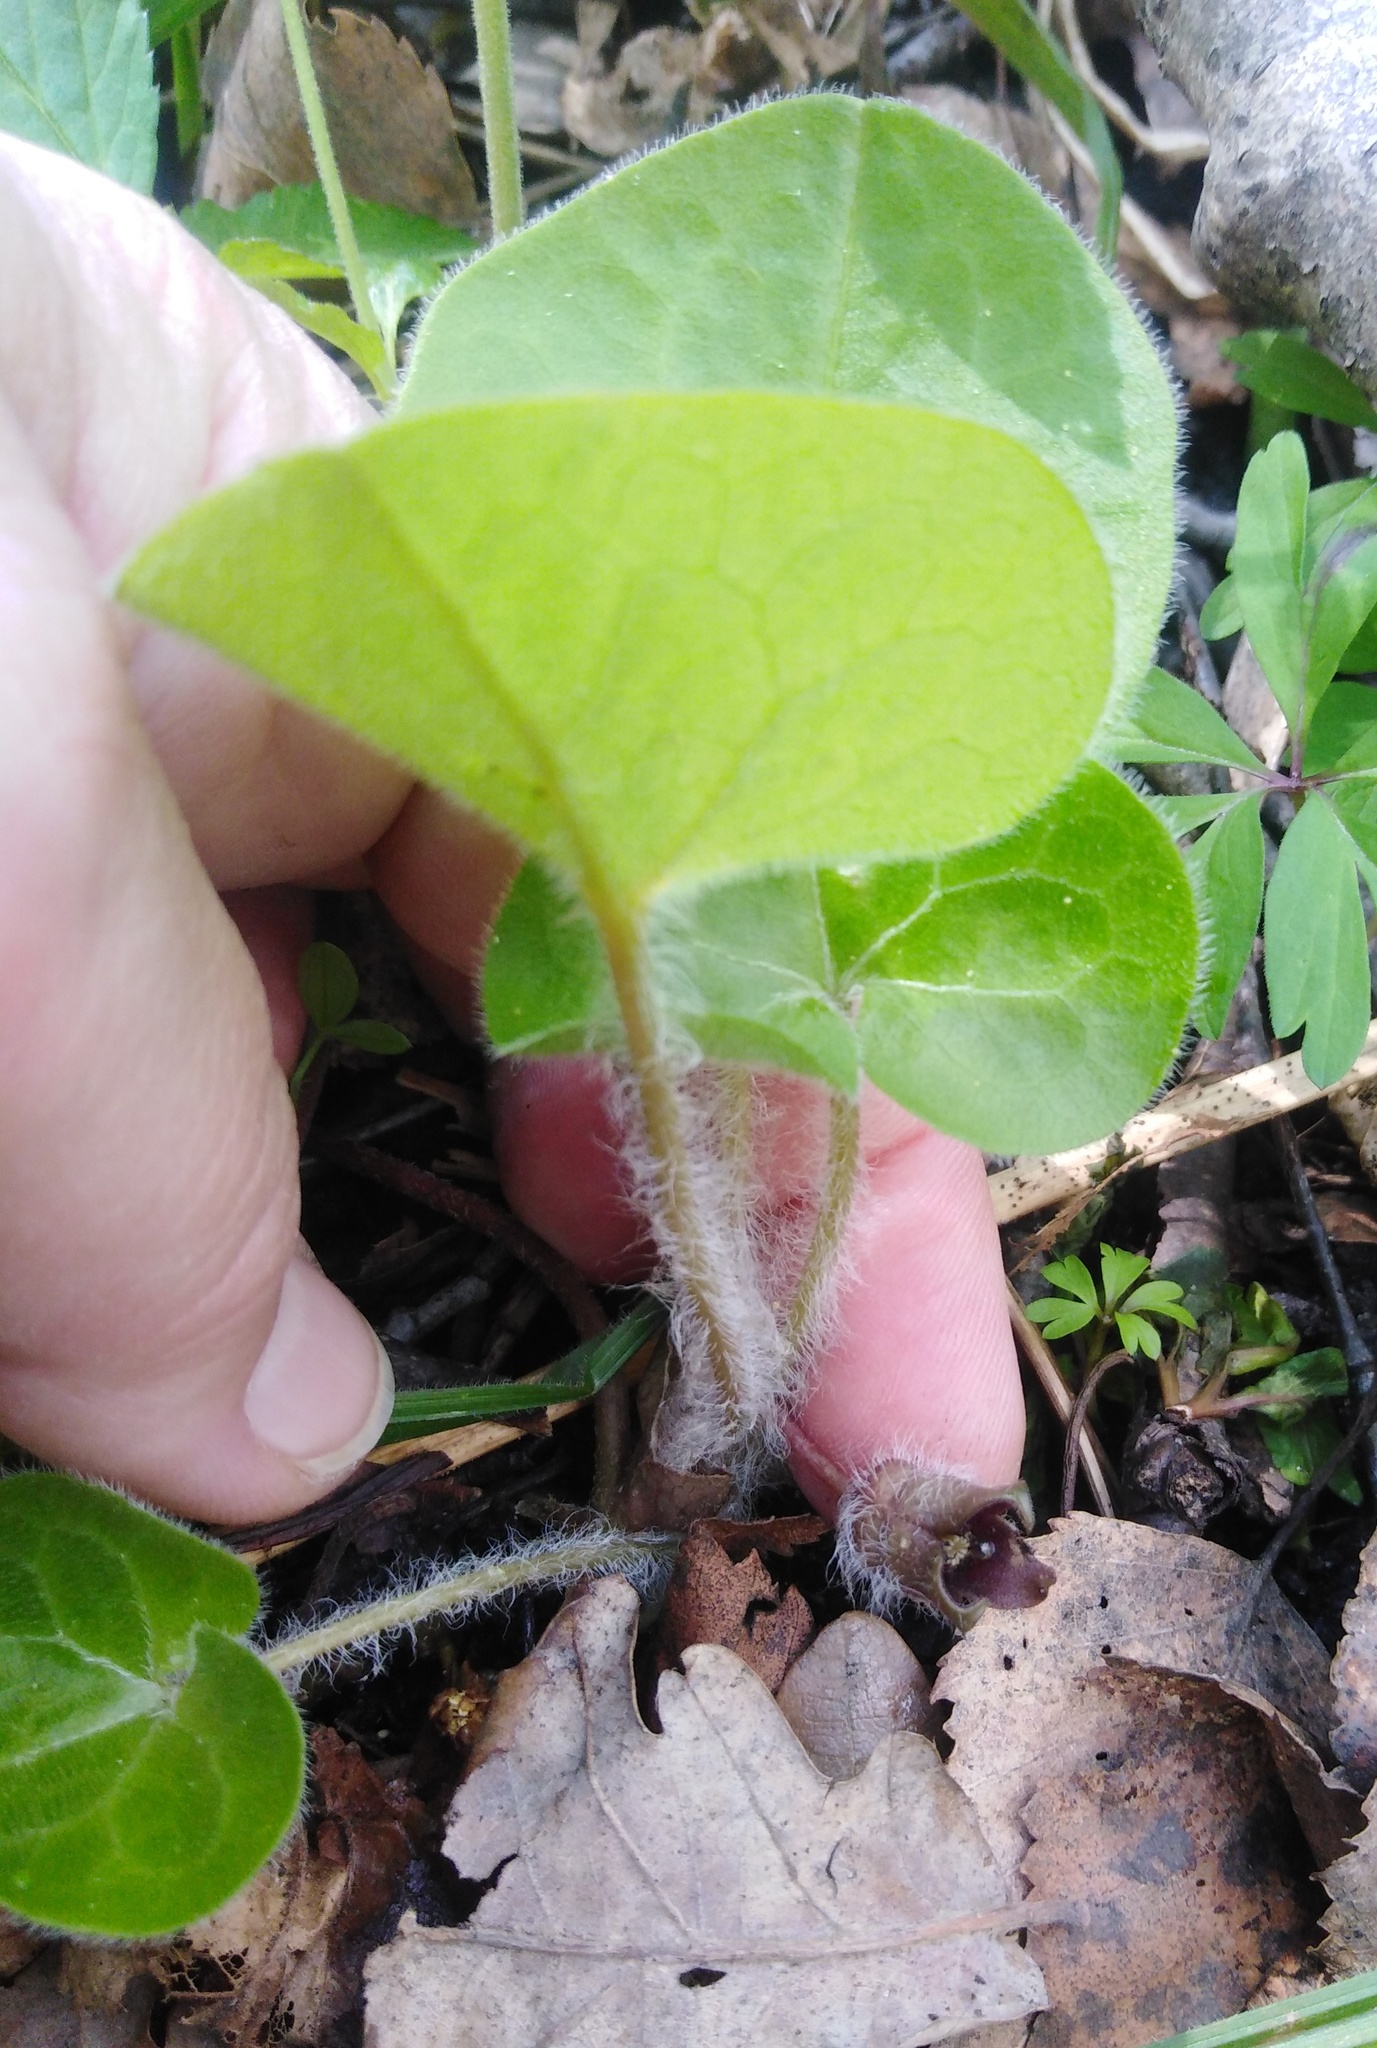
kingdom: Plantae
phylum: Tracheophyta
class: Magnoliopsida
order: Piperales
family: Aristolochiaceae
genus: Asarum
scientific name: Asarum europaeum
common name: Asarabacca
